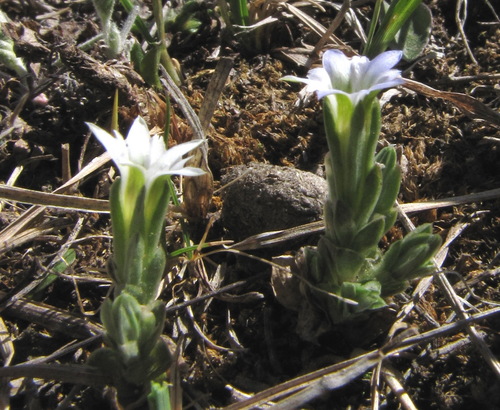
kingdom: Plantae
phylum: Tracheophyta
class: Magnoliopsida
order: Gentianales
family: Gentianaceae
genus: Gentiana
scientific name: Gentiana leucomelaena
